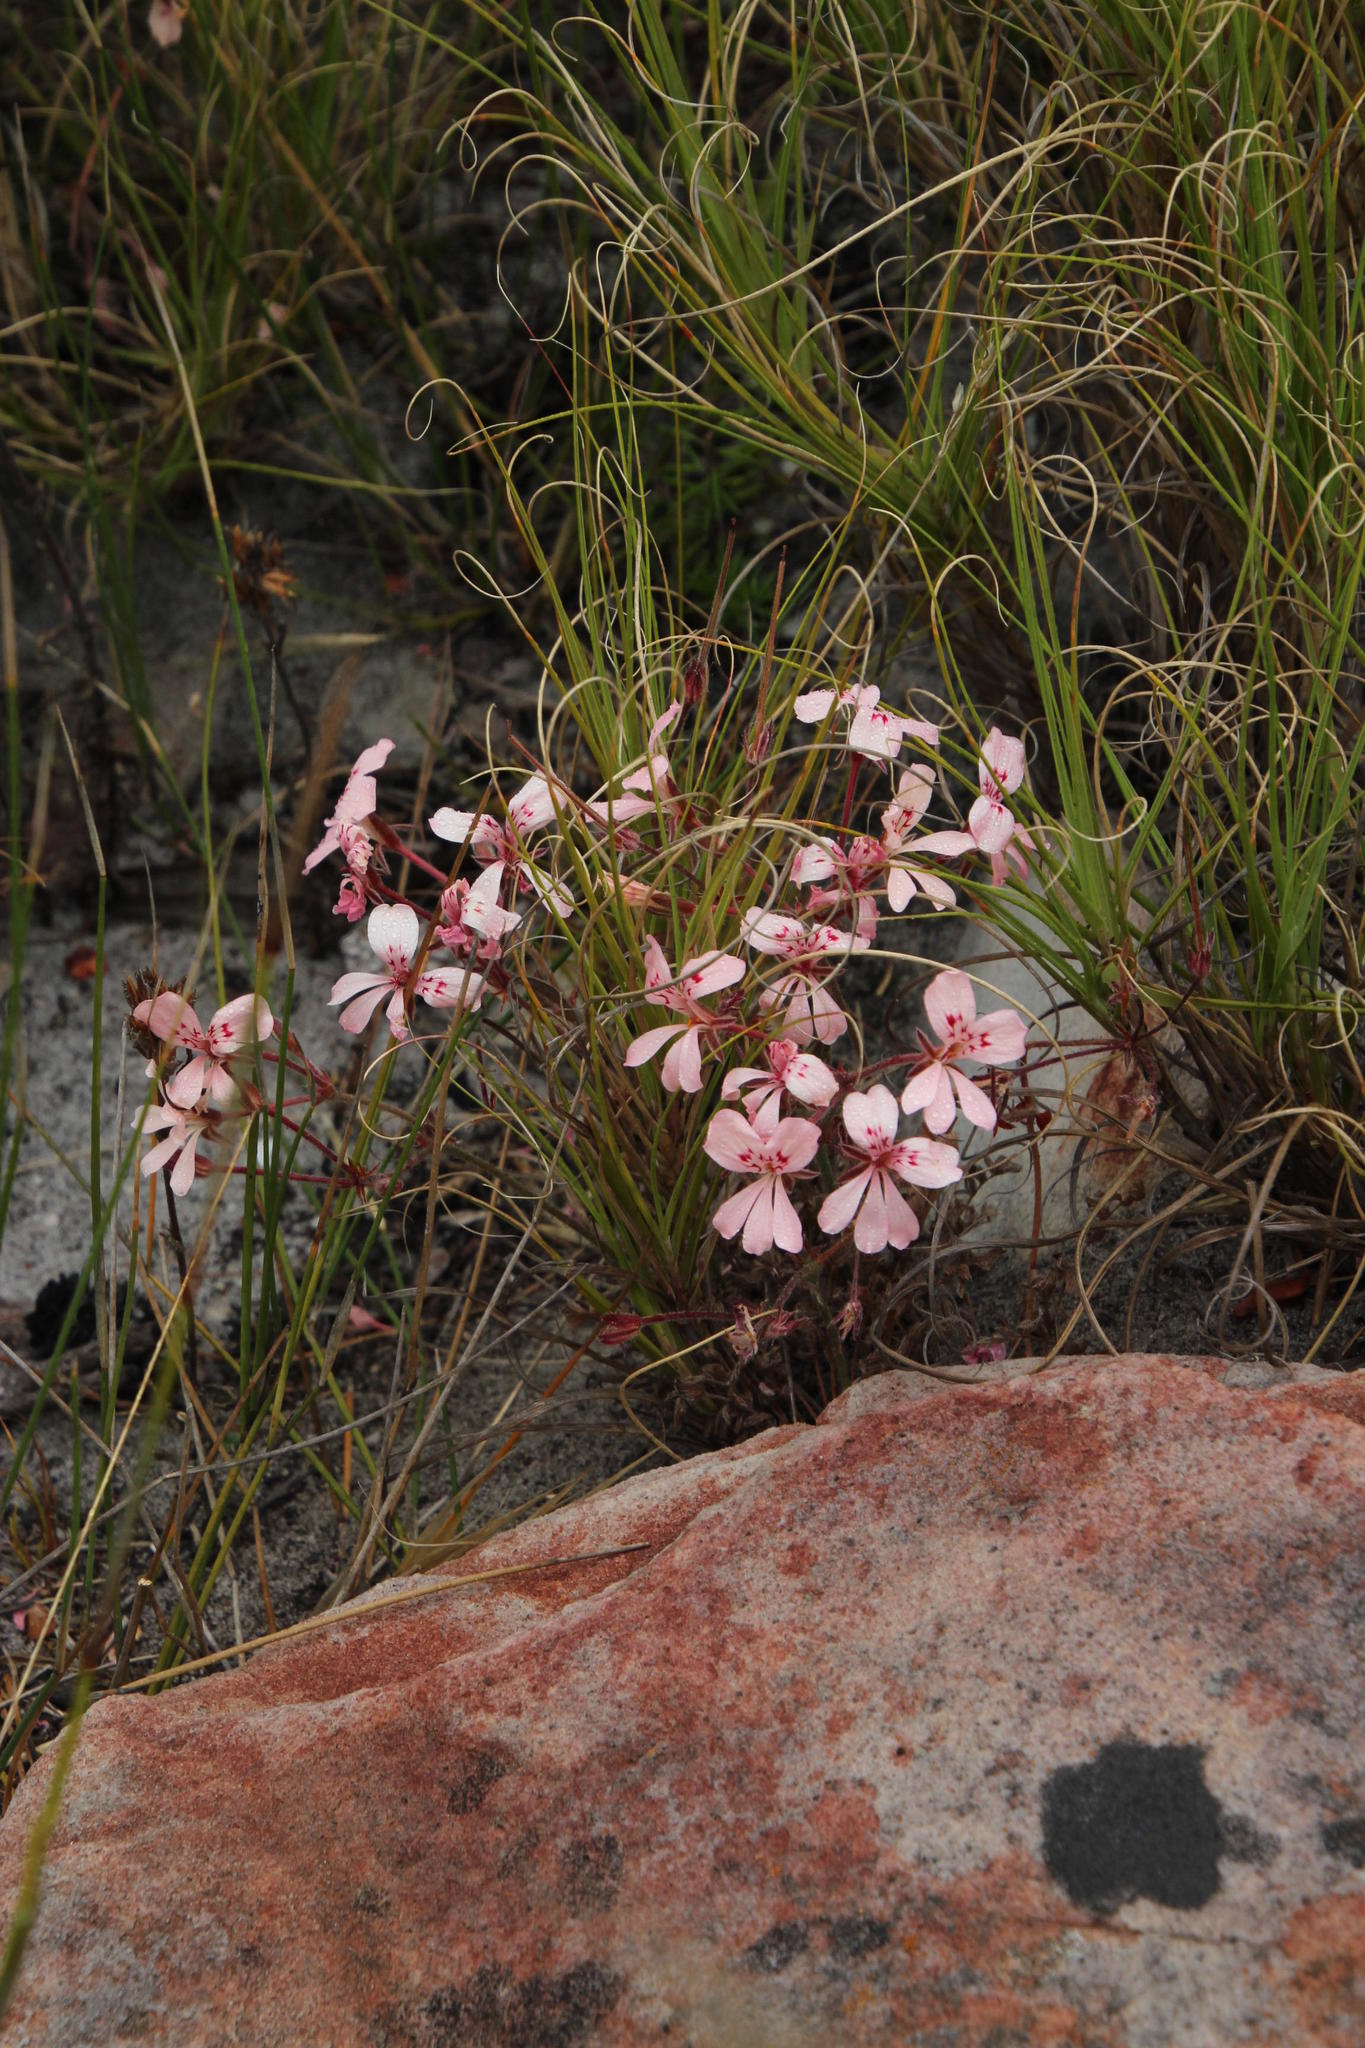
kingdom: Plantae
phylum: Tracheophyta
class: Magnoliopsida
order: Geraniales
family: Geraniaceae
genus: Pelargonium
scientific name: Pelargonium pinnatum
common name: Pinnated pelargonium
